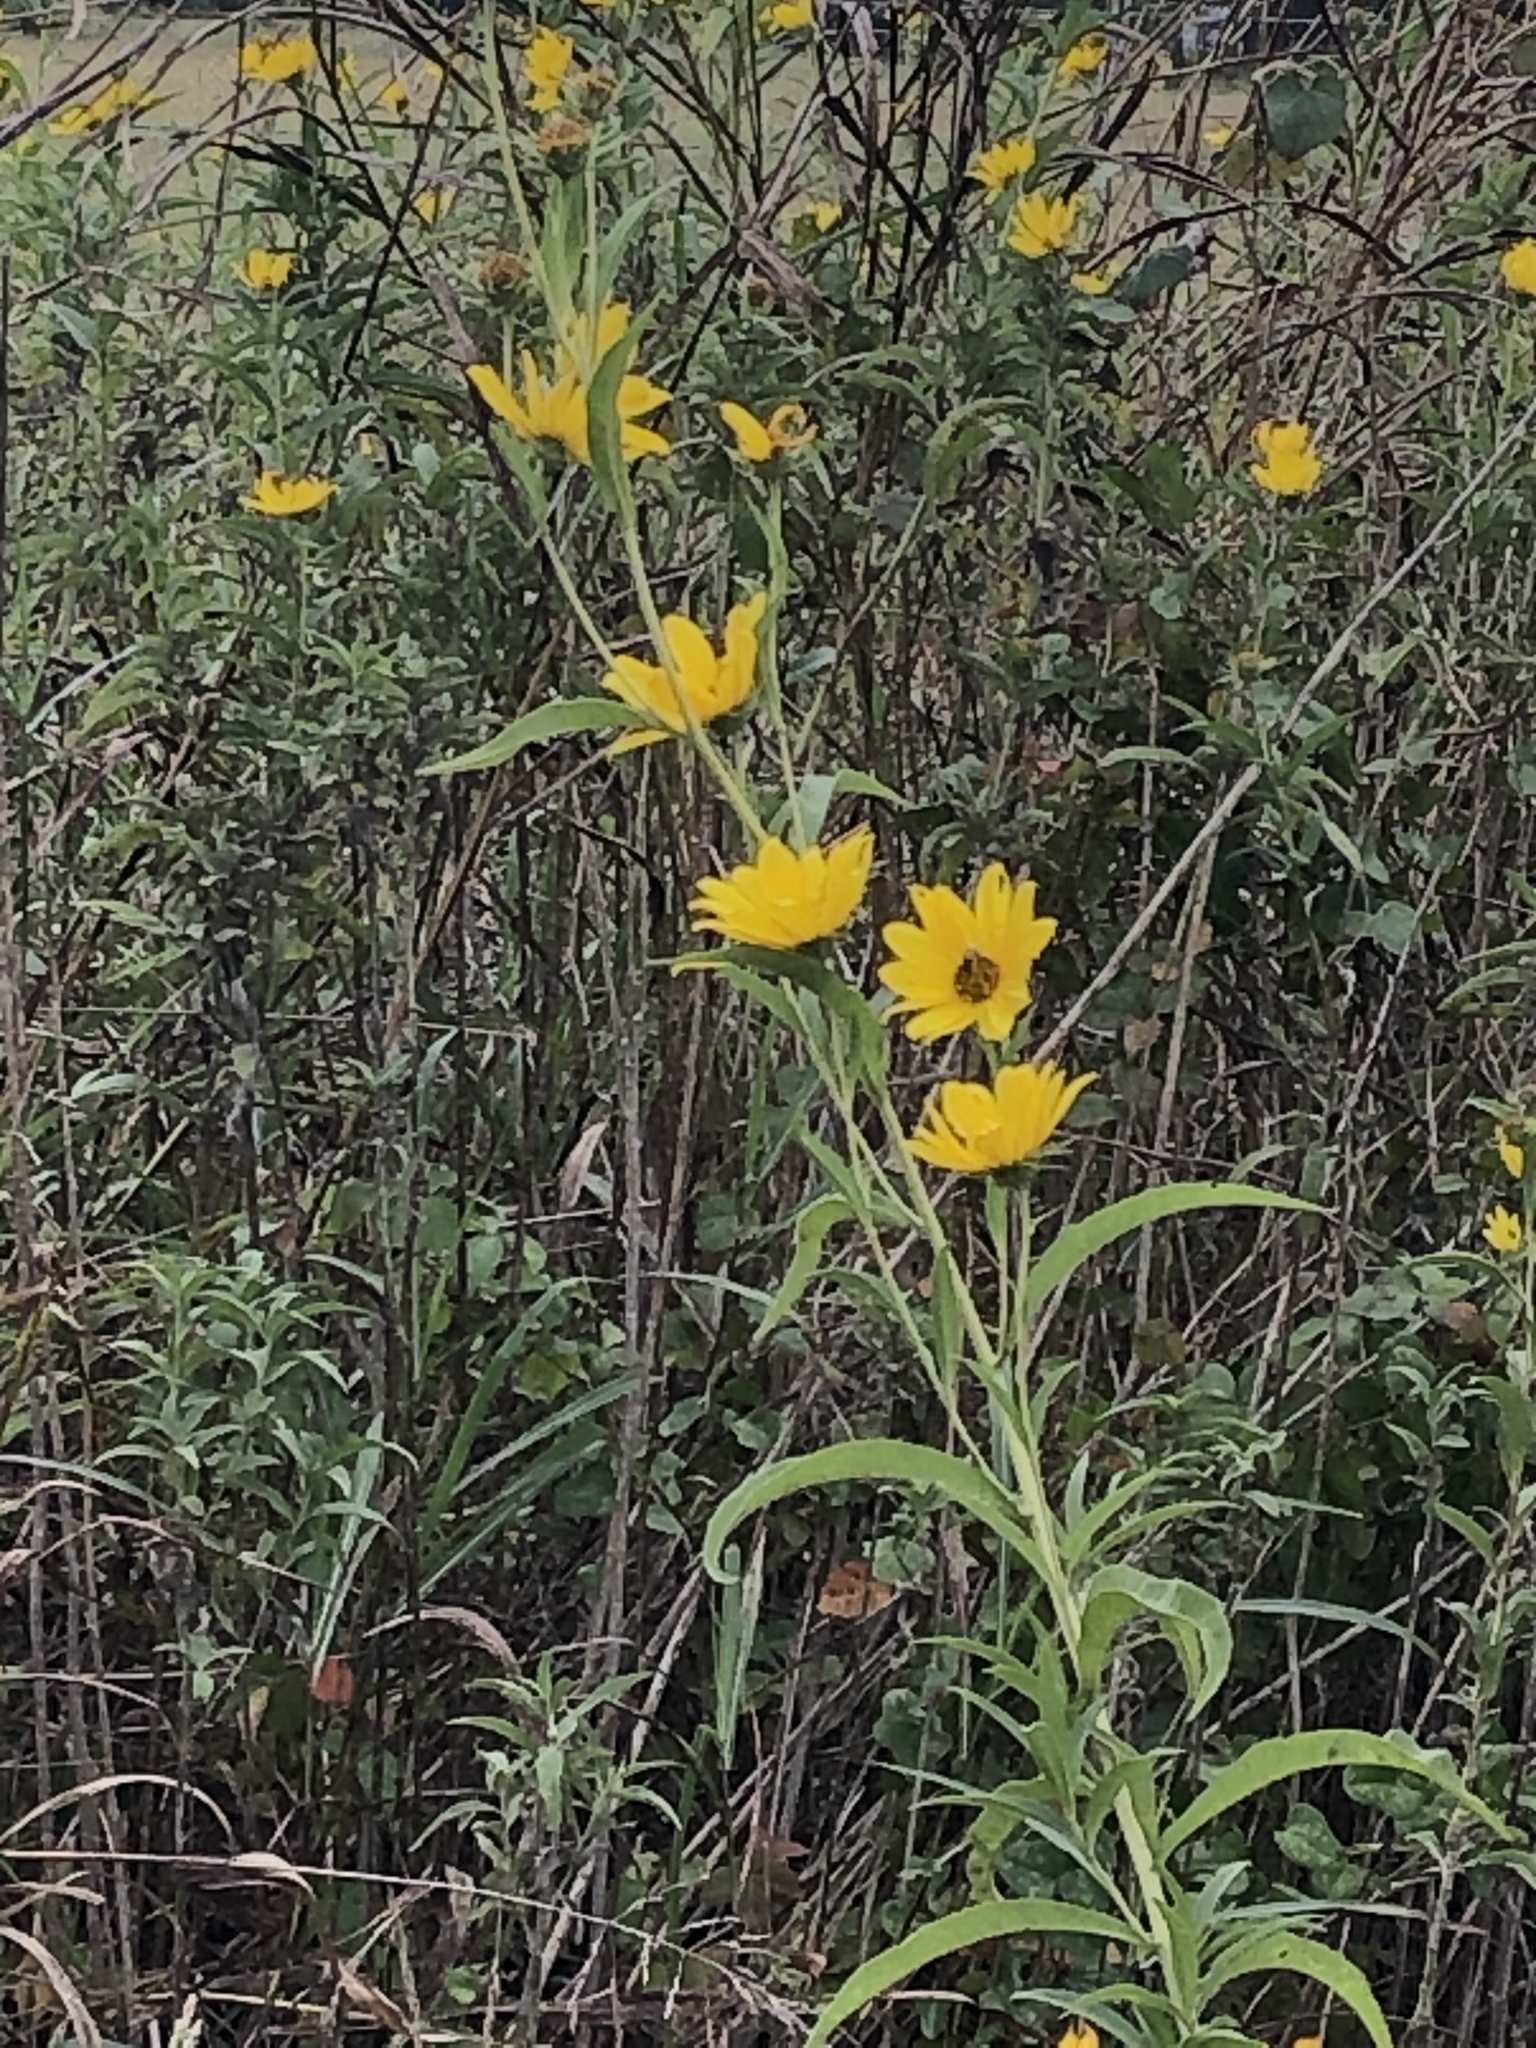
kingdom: Plantae
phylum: Tracheophyta
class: Magnoliopsida
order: Asterales
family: Asteraceae
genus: Helianthus
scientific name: Helianthus maximiliani
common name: Maximilian's sunflower
